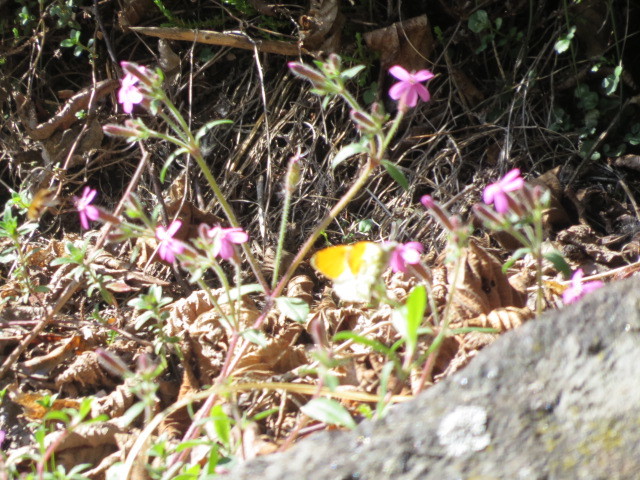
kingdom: Animalia
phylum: Arthropoda
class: Insecta
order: Lepidoptera
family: Pieridae
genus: Anthocharis
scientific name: Anthocharis cardamines
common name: Orange-tip
